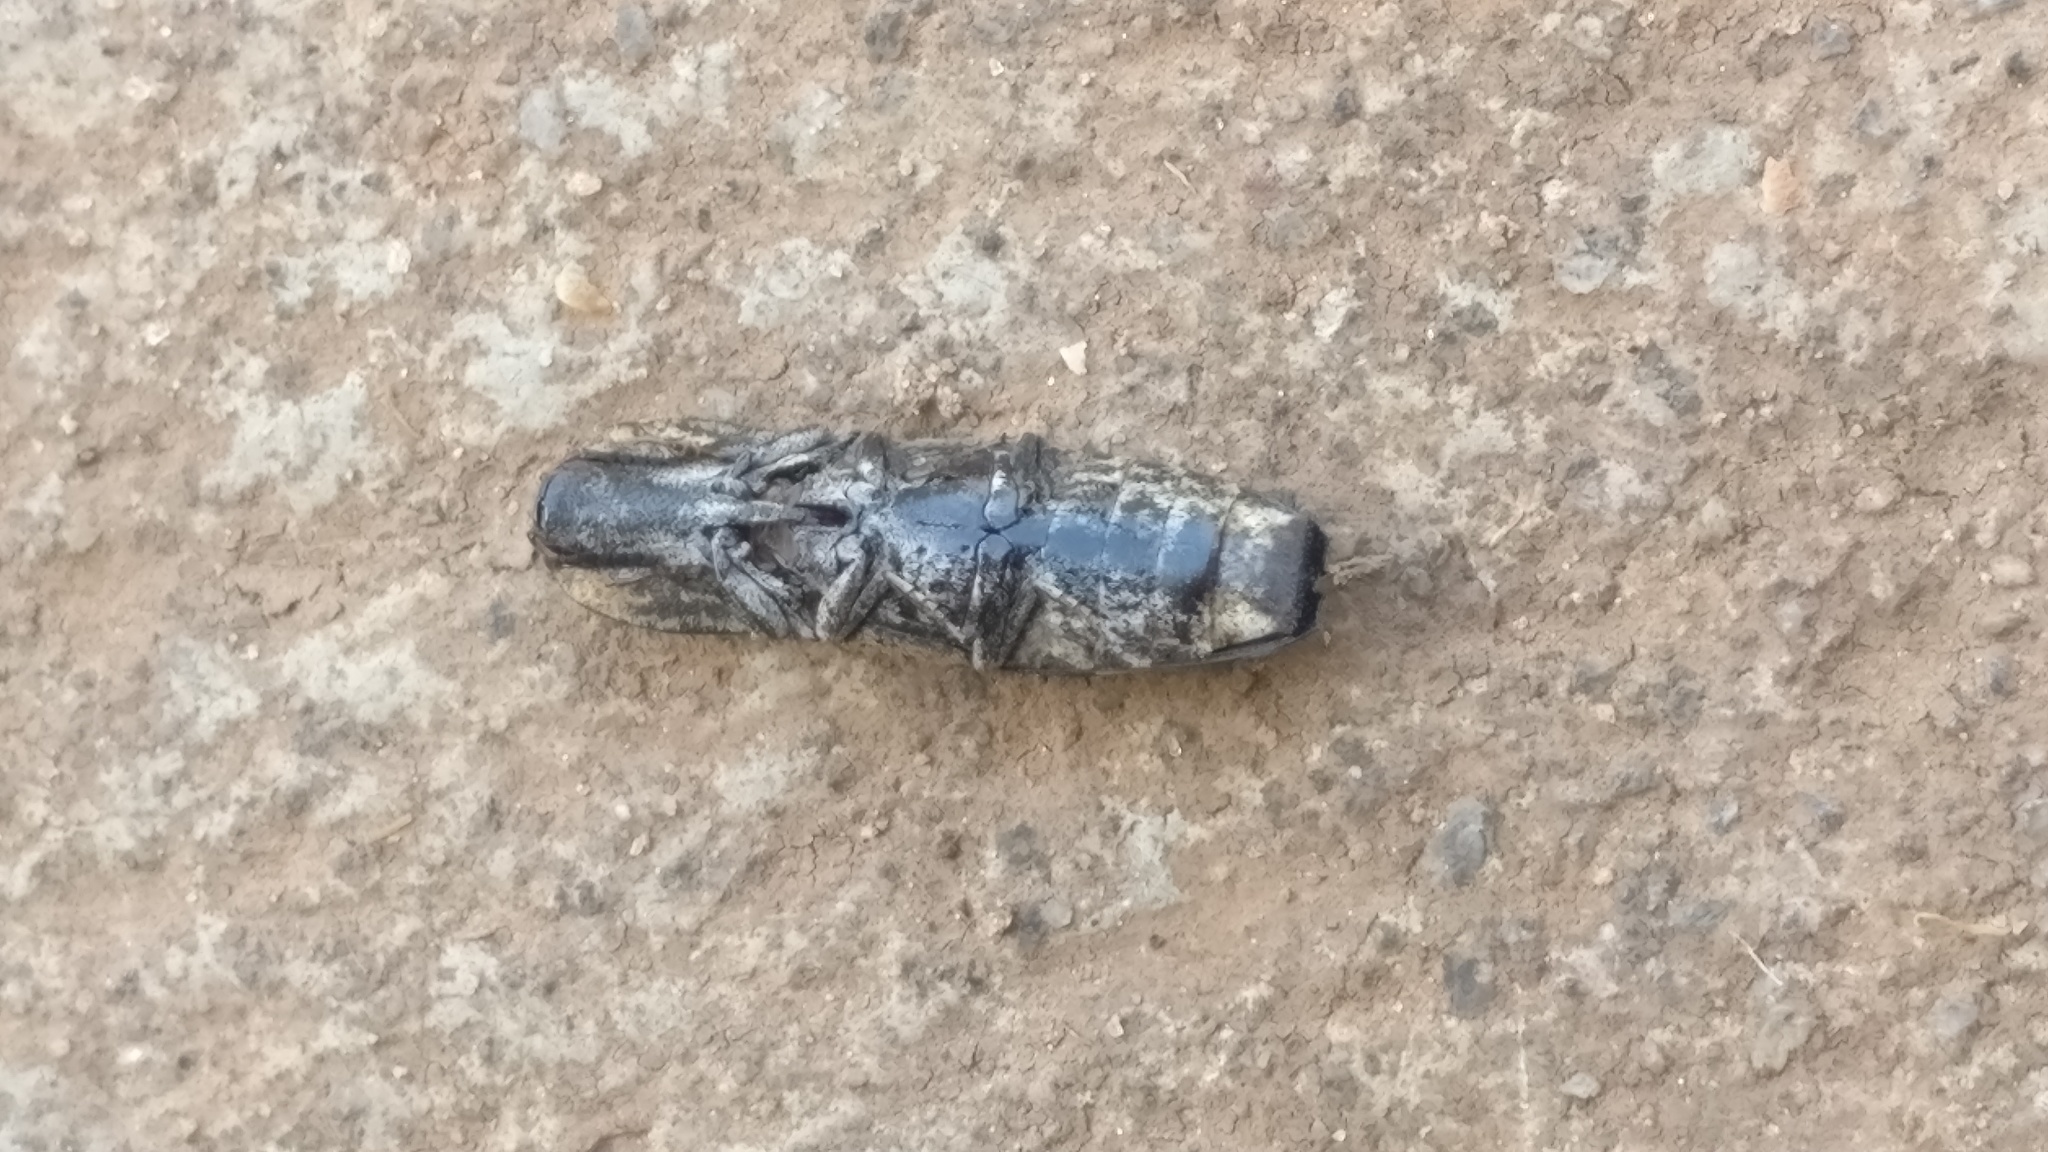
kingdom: Animalia
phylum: Arthropoda
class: Insecta
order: Coleoptera
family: Elateridae
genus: Cryptalaus
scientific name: Cryptalaus alveolatus
